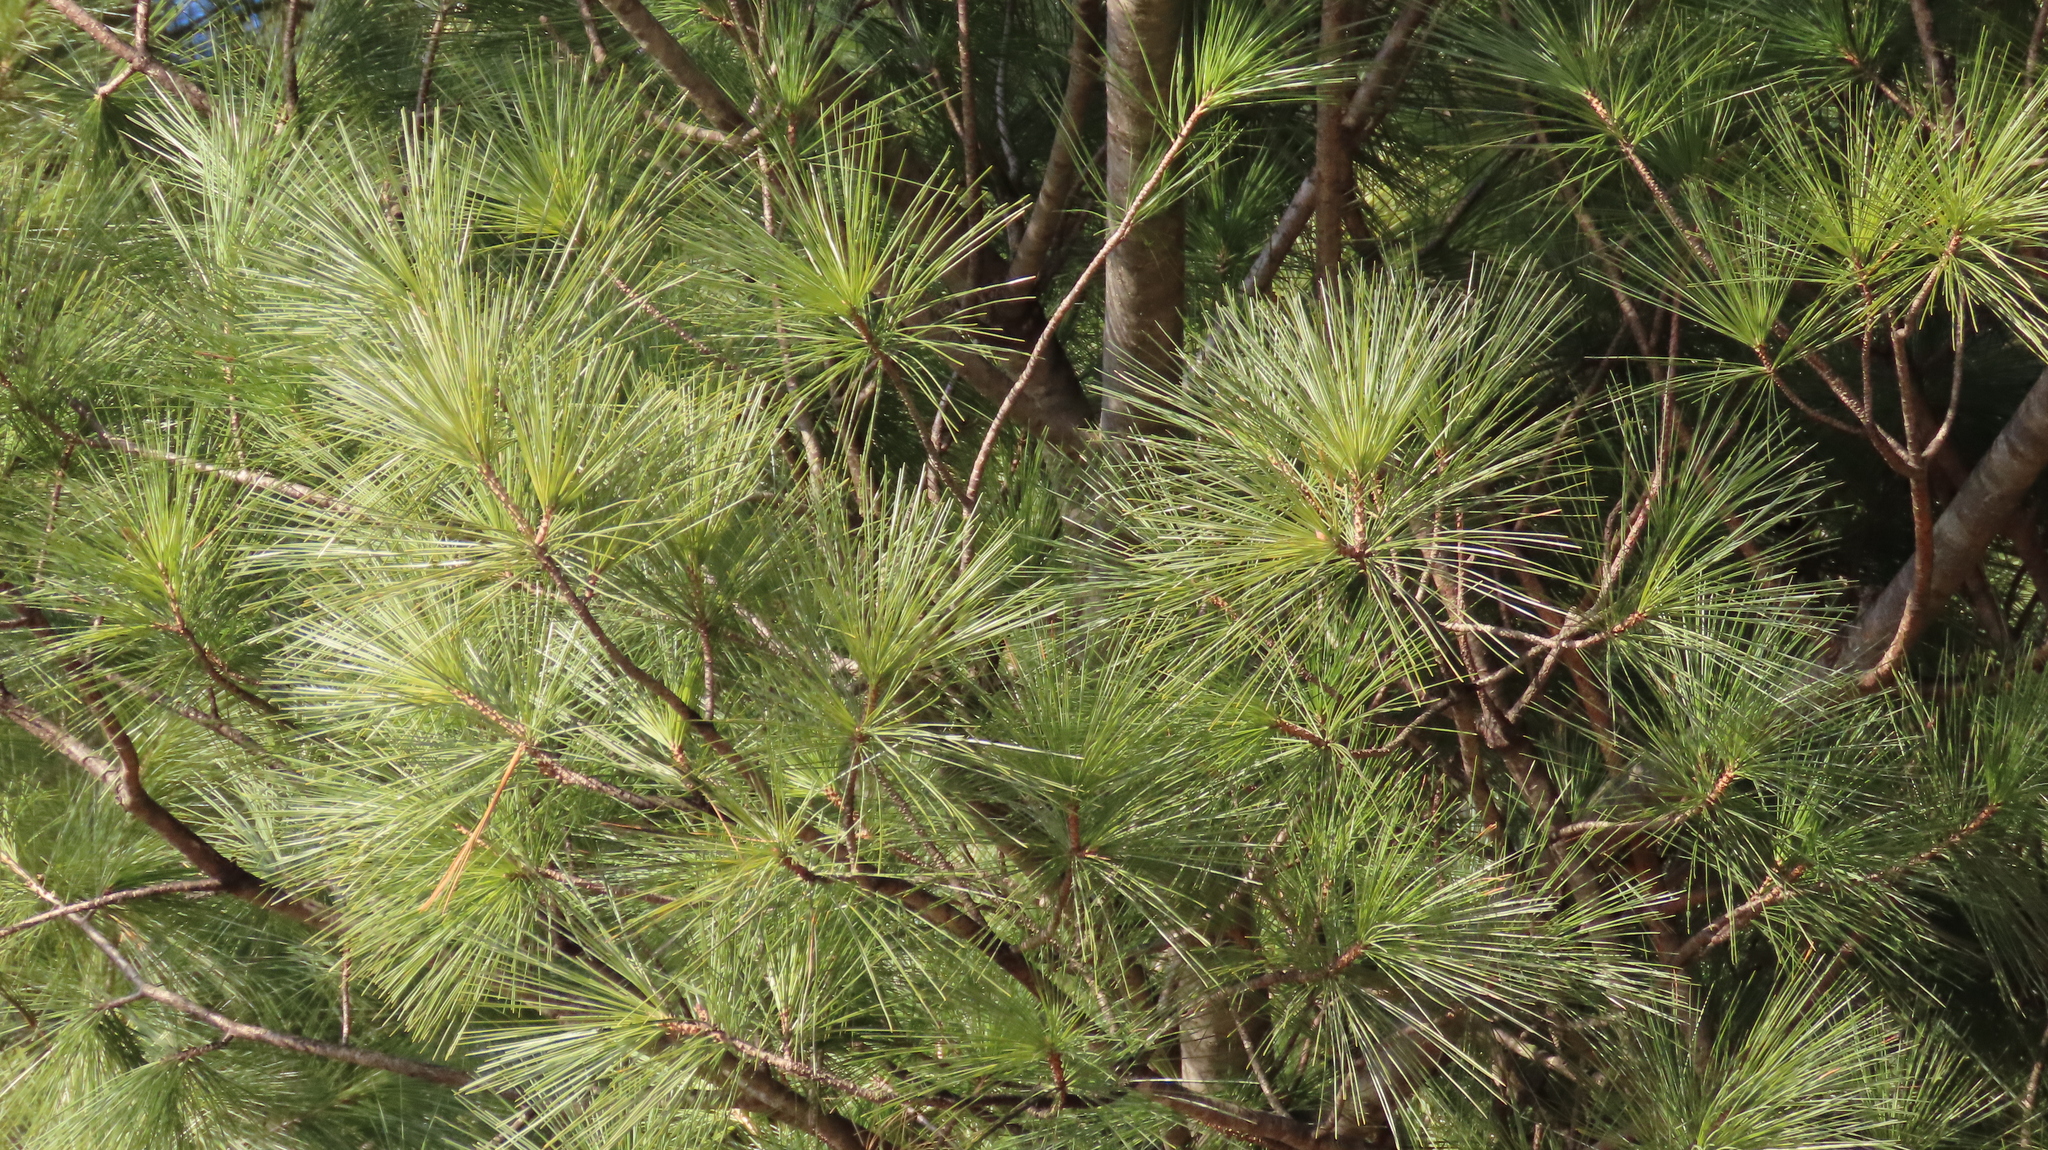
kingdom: Plantae
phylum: Tracheophyta
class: Pinopsida
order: Pinales
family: Pinaceae
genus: Pinus
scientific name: Pinus strobus
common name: Weymouth pine
